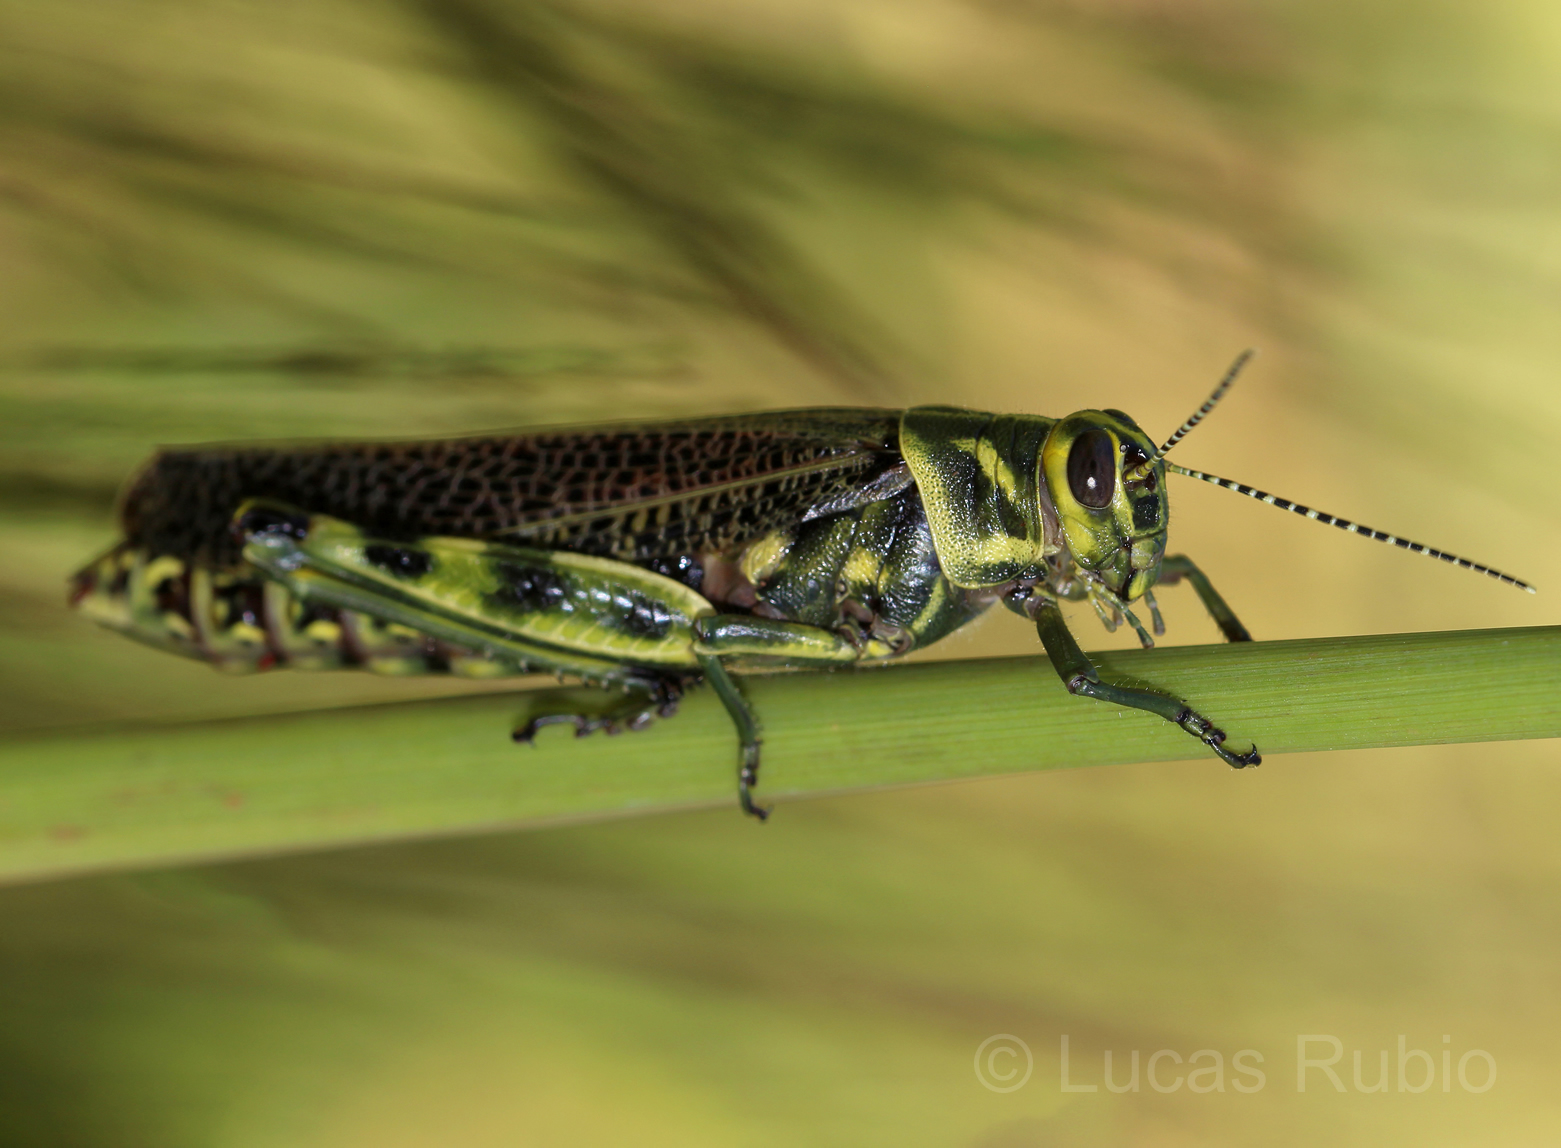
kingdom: Animalia
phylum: Arthropoda
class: Insecta
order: Orthoptera
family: Romaleidae
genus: Diponthus
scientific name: Diponthus paraguayensis
